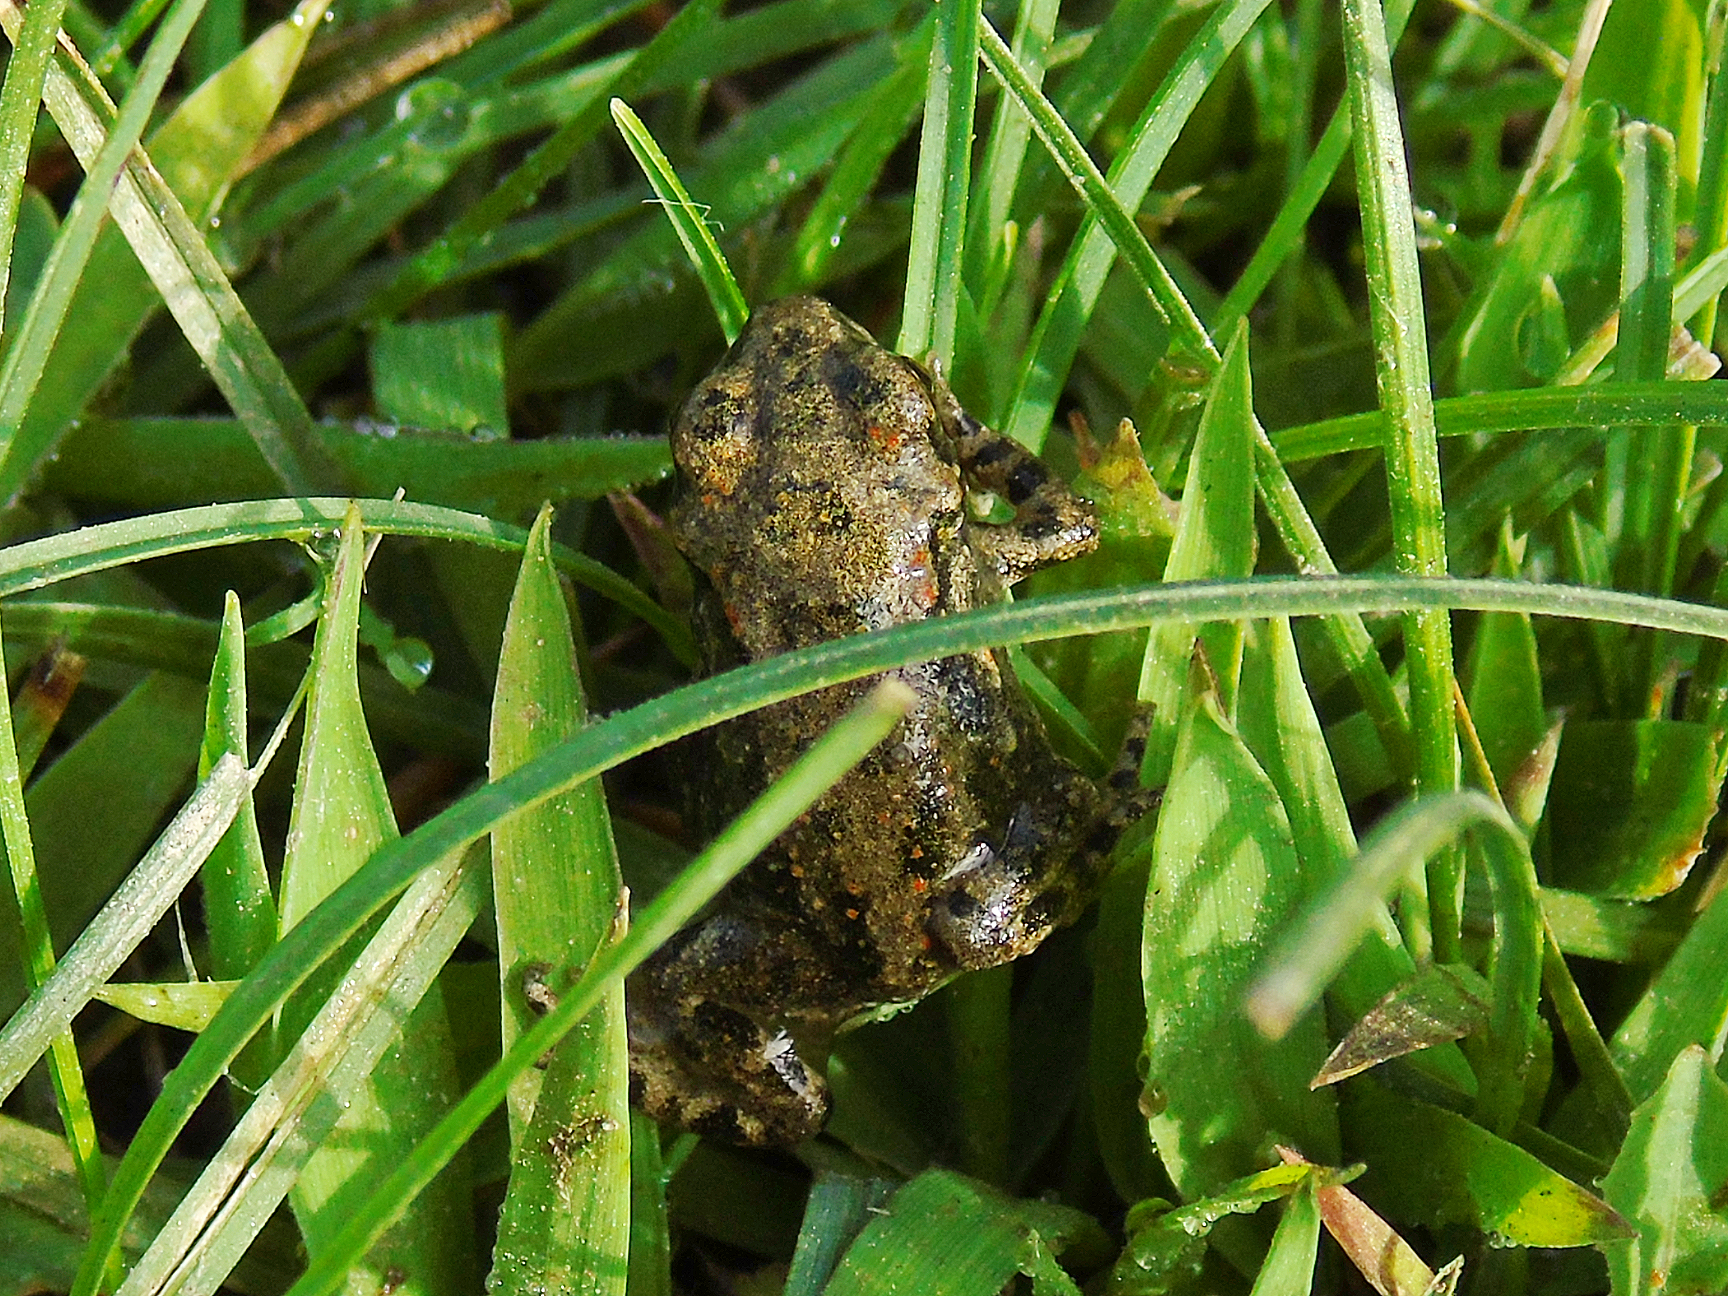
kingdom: Animalia
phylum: Chordata
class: Amphibia
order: Anura
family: Bufonidae
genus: Bufotes
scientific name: Bufotes latastii
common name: Ladakh toad
